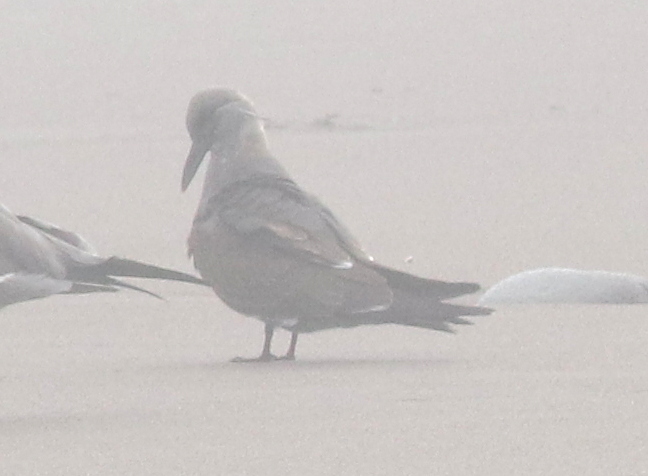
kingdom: Animalia
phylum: Chordata
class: Aves
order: Charadriiformes
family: Laridae
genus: Larosterna
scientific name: Larosterna inca
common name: Inca tern
